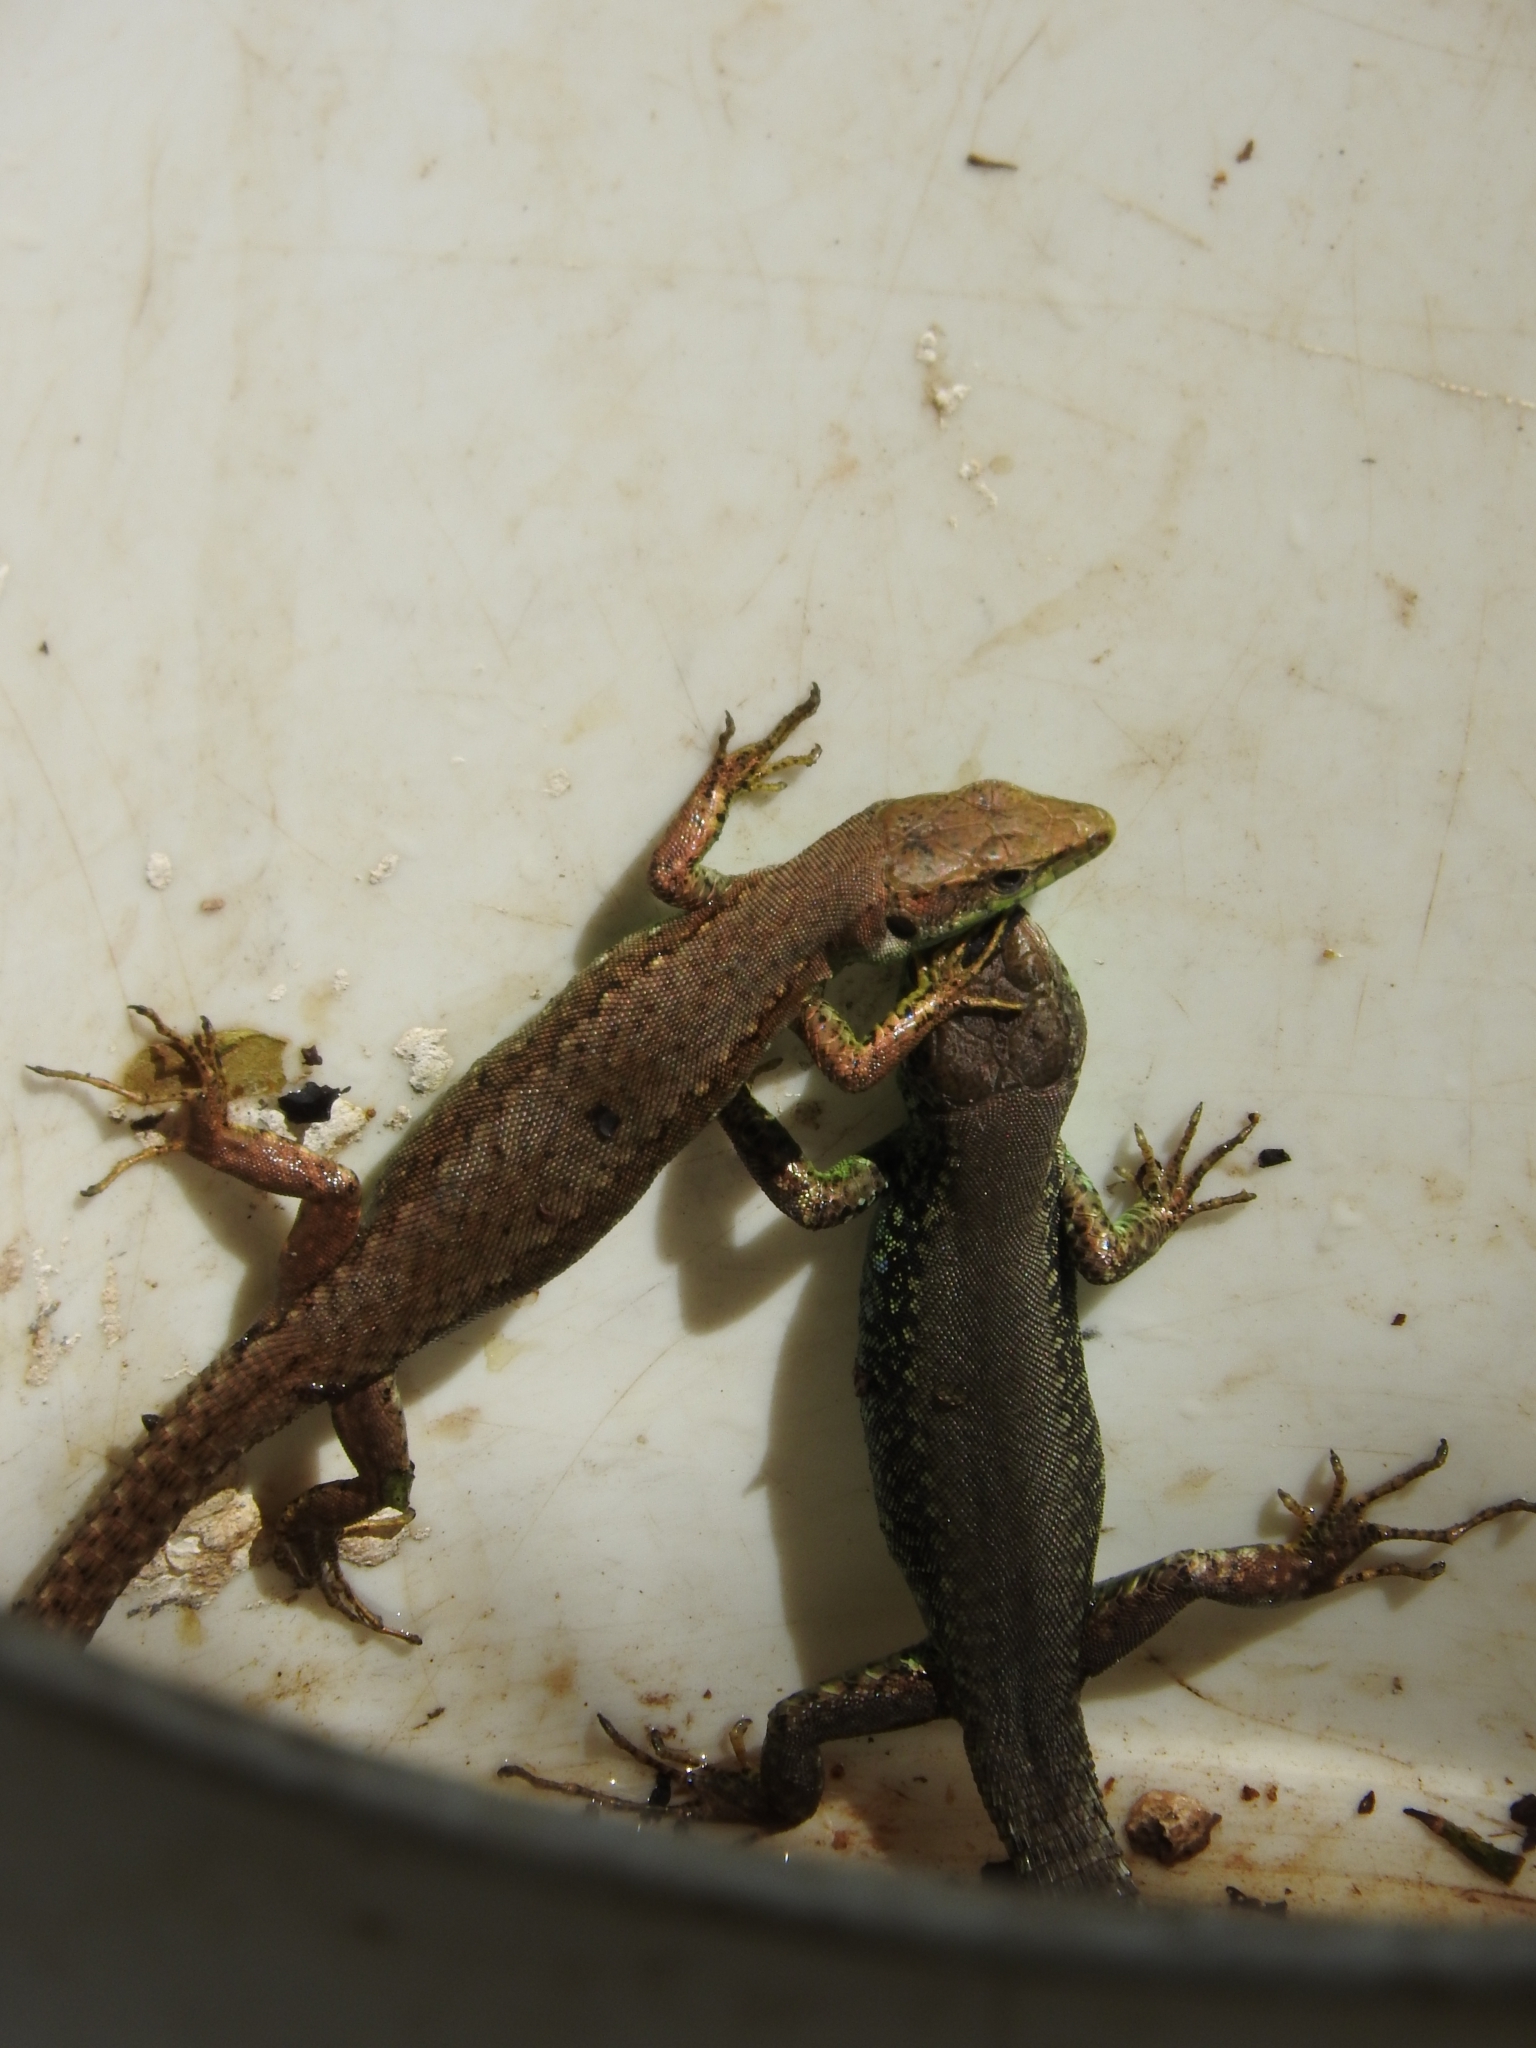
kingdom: Animalia
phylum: Chordata
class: Squamata
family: Lacertidae
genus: Darevskia
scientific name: Darevskia chlorogaster
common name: Green-bellied lizard
